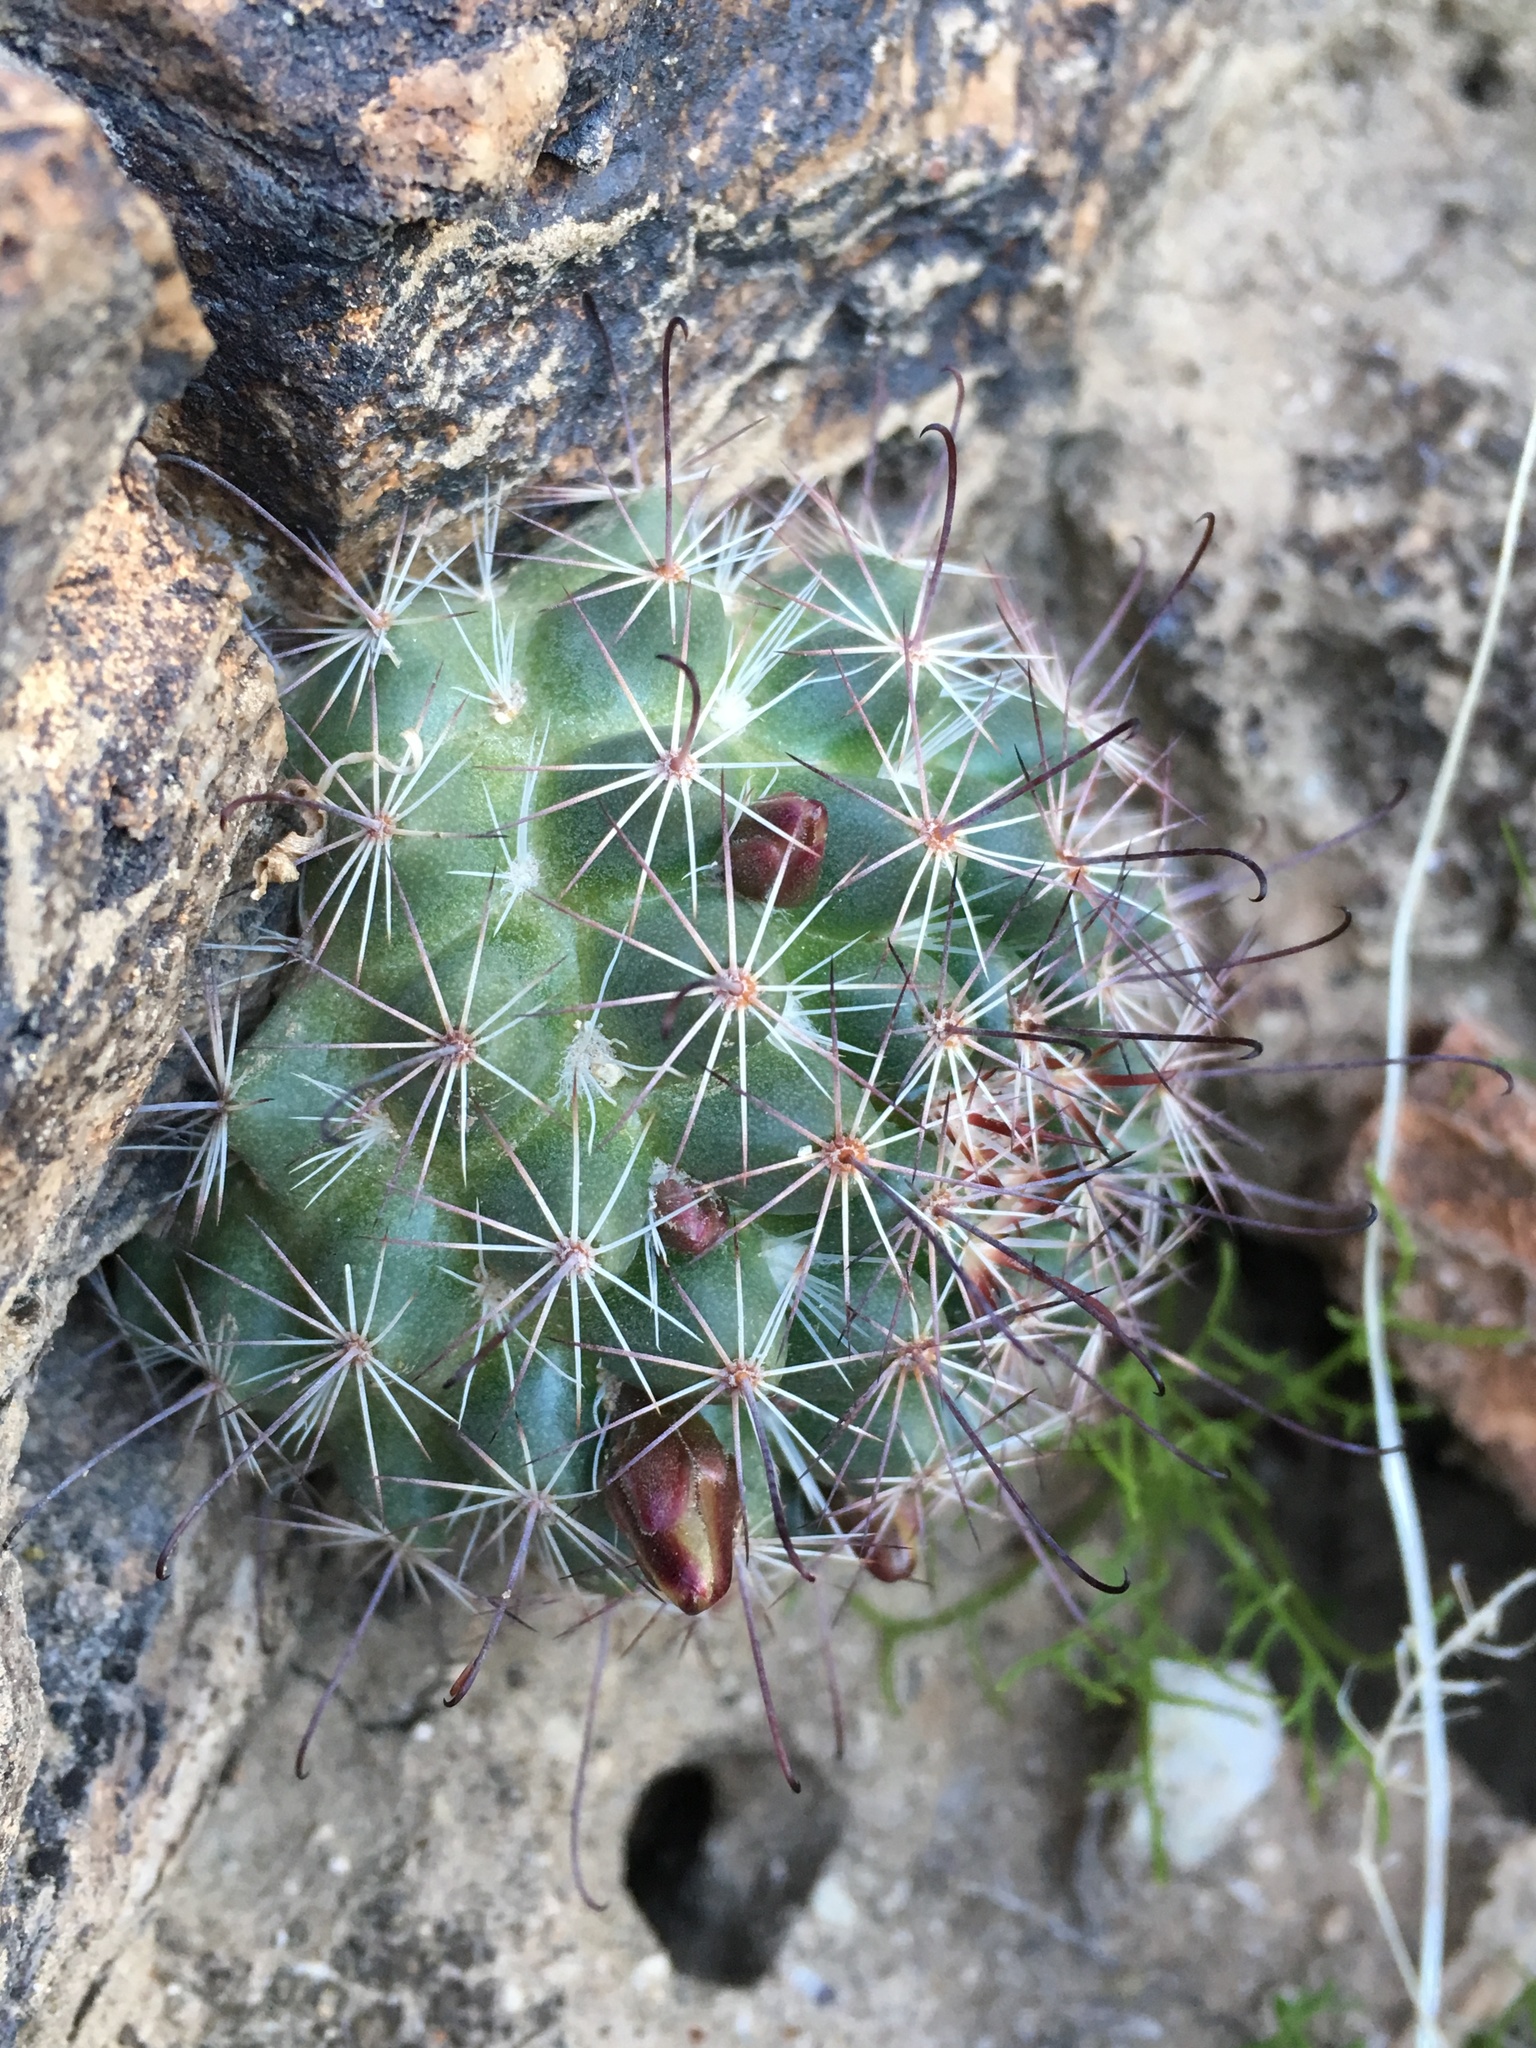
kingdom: Plantae
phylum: Tracheophyta
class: Magnoliopsida
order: Caryophyllales
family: Cactaceae
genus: Cochemiea
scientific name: Cochemiea dioica
